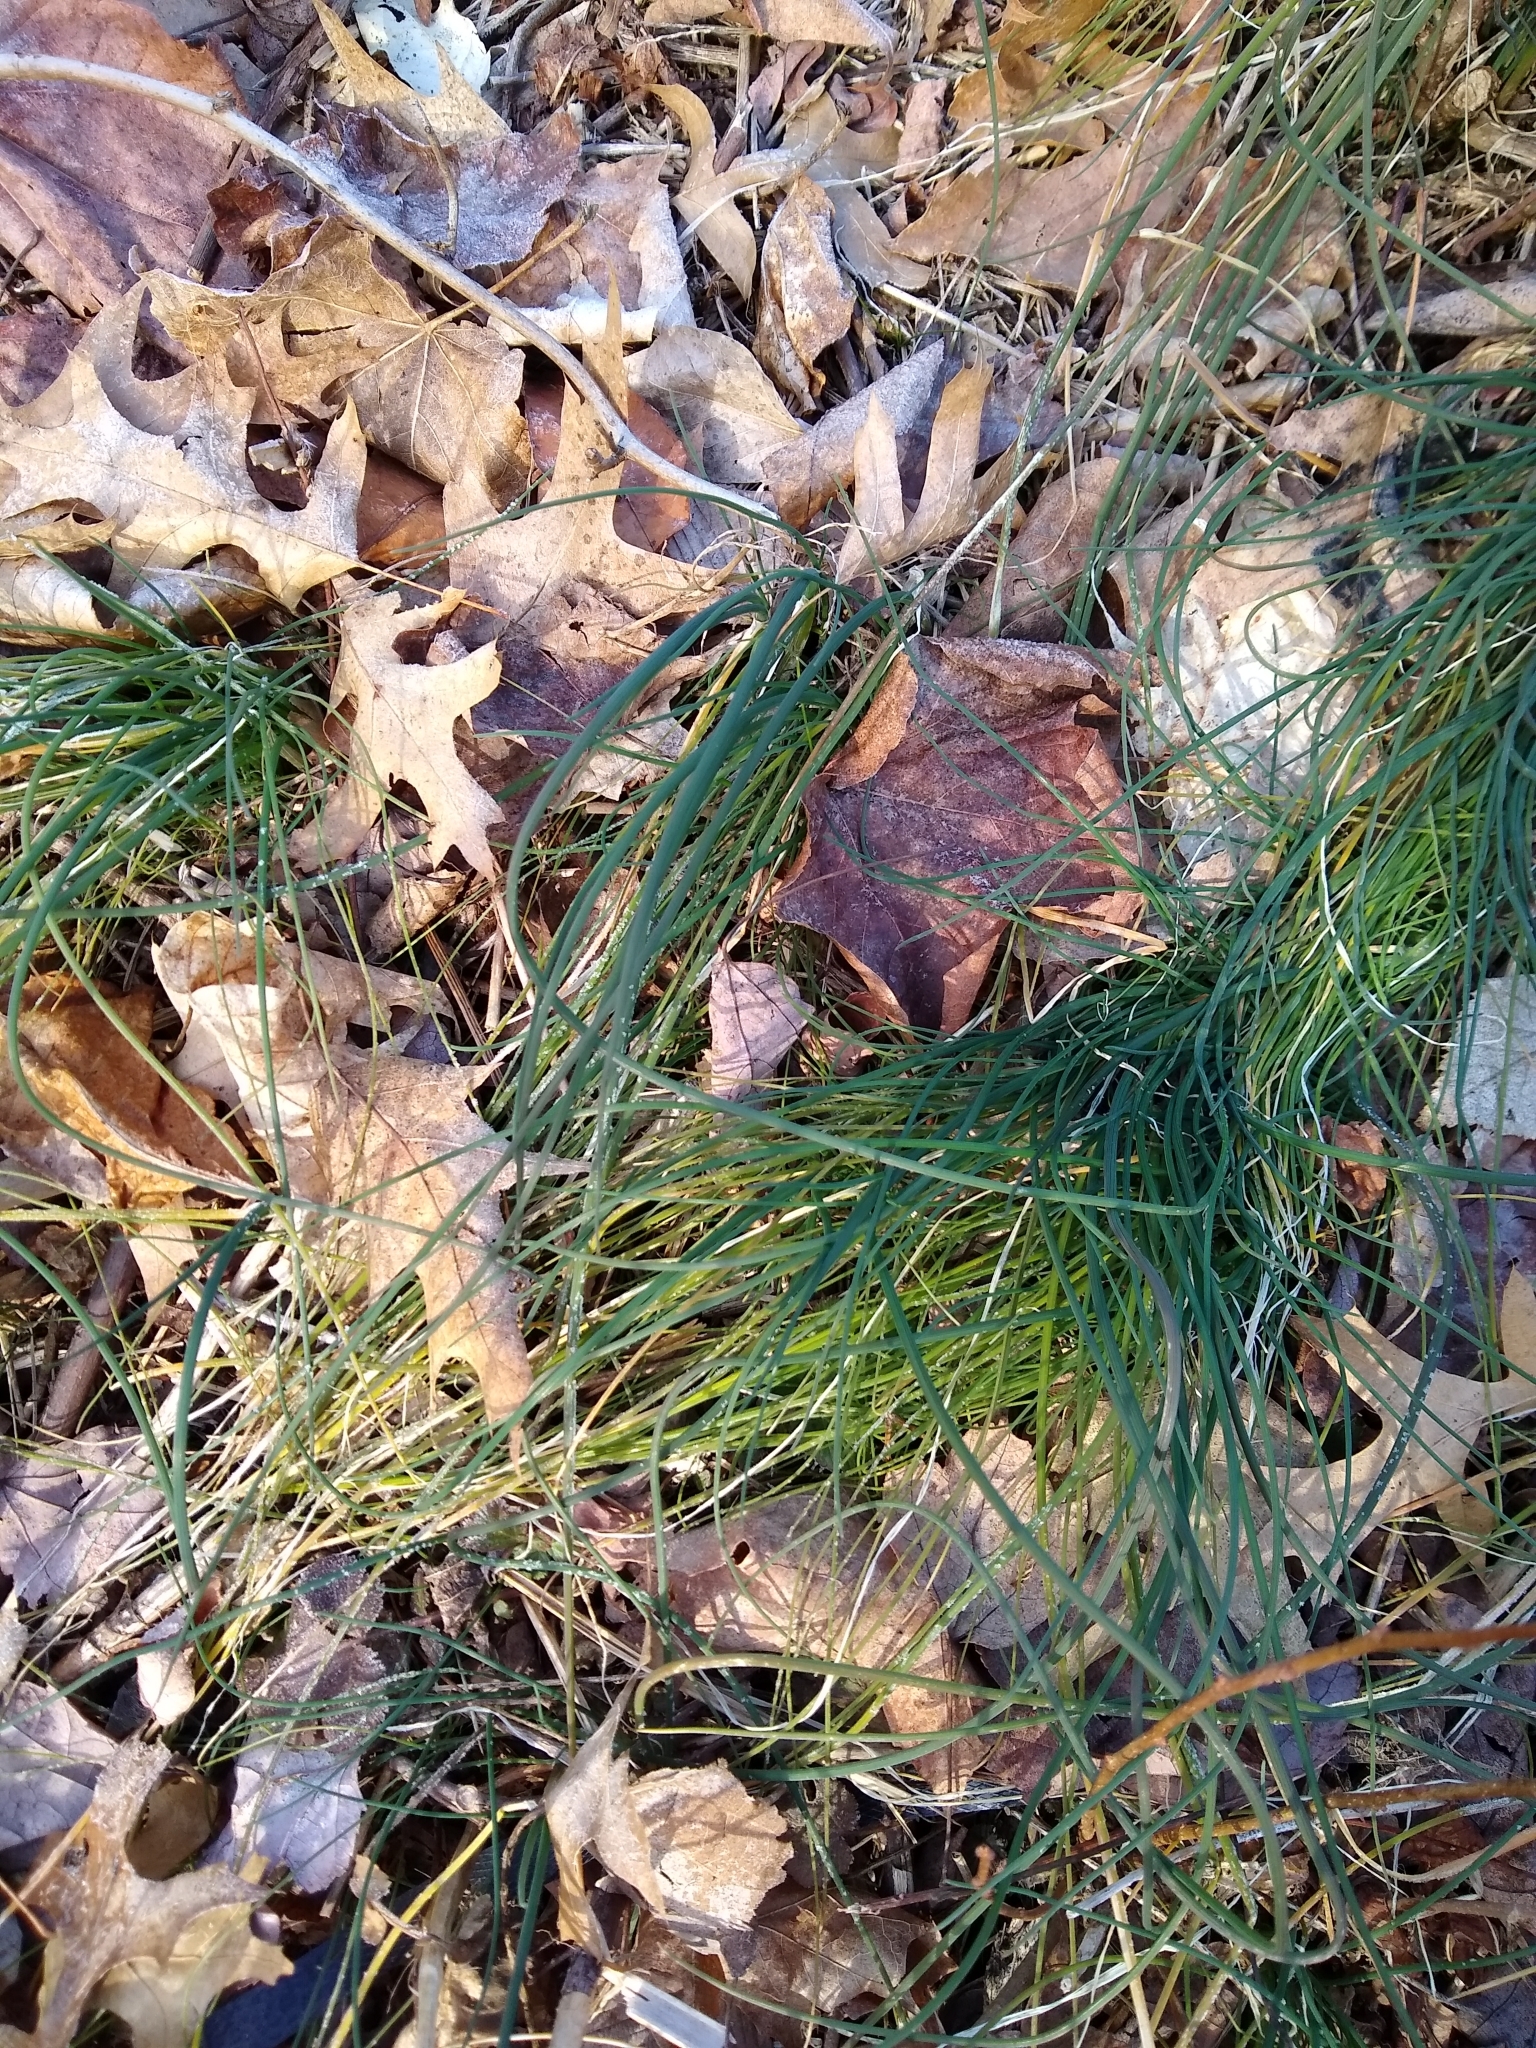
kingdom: Plantae
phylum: Tracheophyta
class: Liliopsida
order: Asparagales
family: Amaryllidaceae
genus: Allium
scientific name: Allium vineale
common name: Crow garlic
